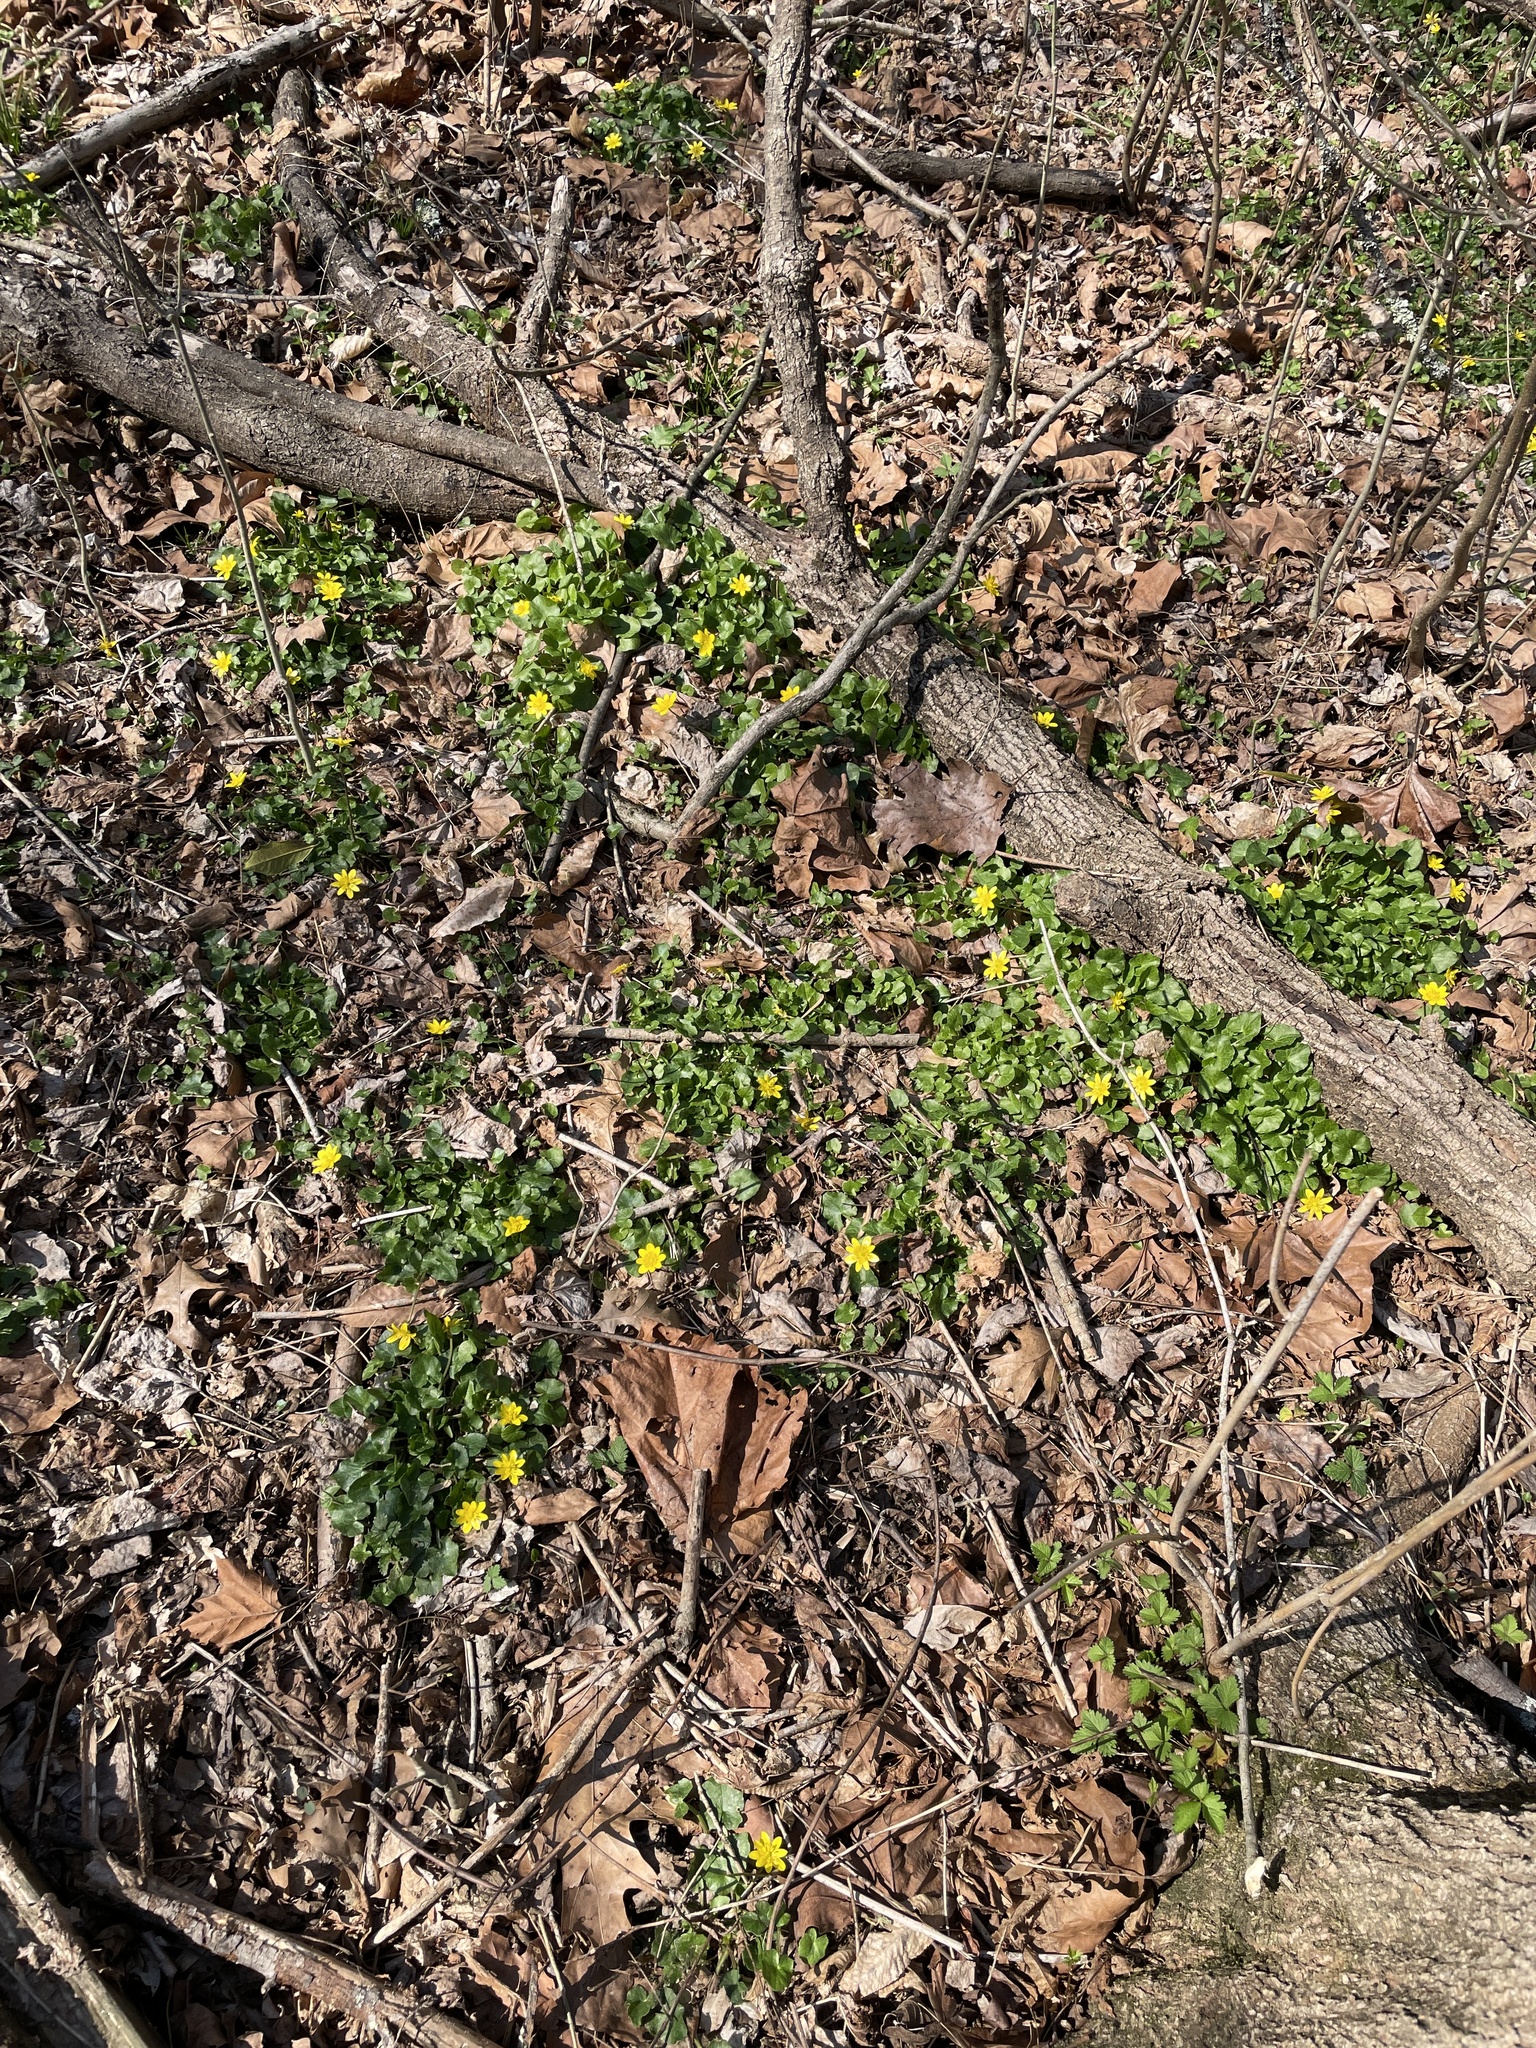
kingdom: Plantae
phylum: Tracheophyta
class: Magnoliopsida
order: Ranunculales
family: Ranunculaceae
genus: Ficaria
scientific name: Ficaria verna
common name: Lesser celandine
